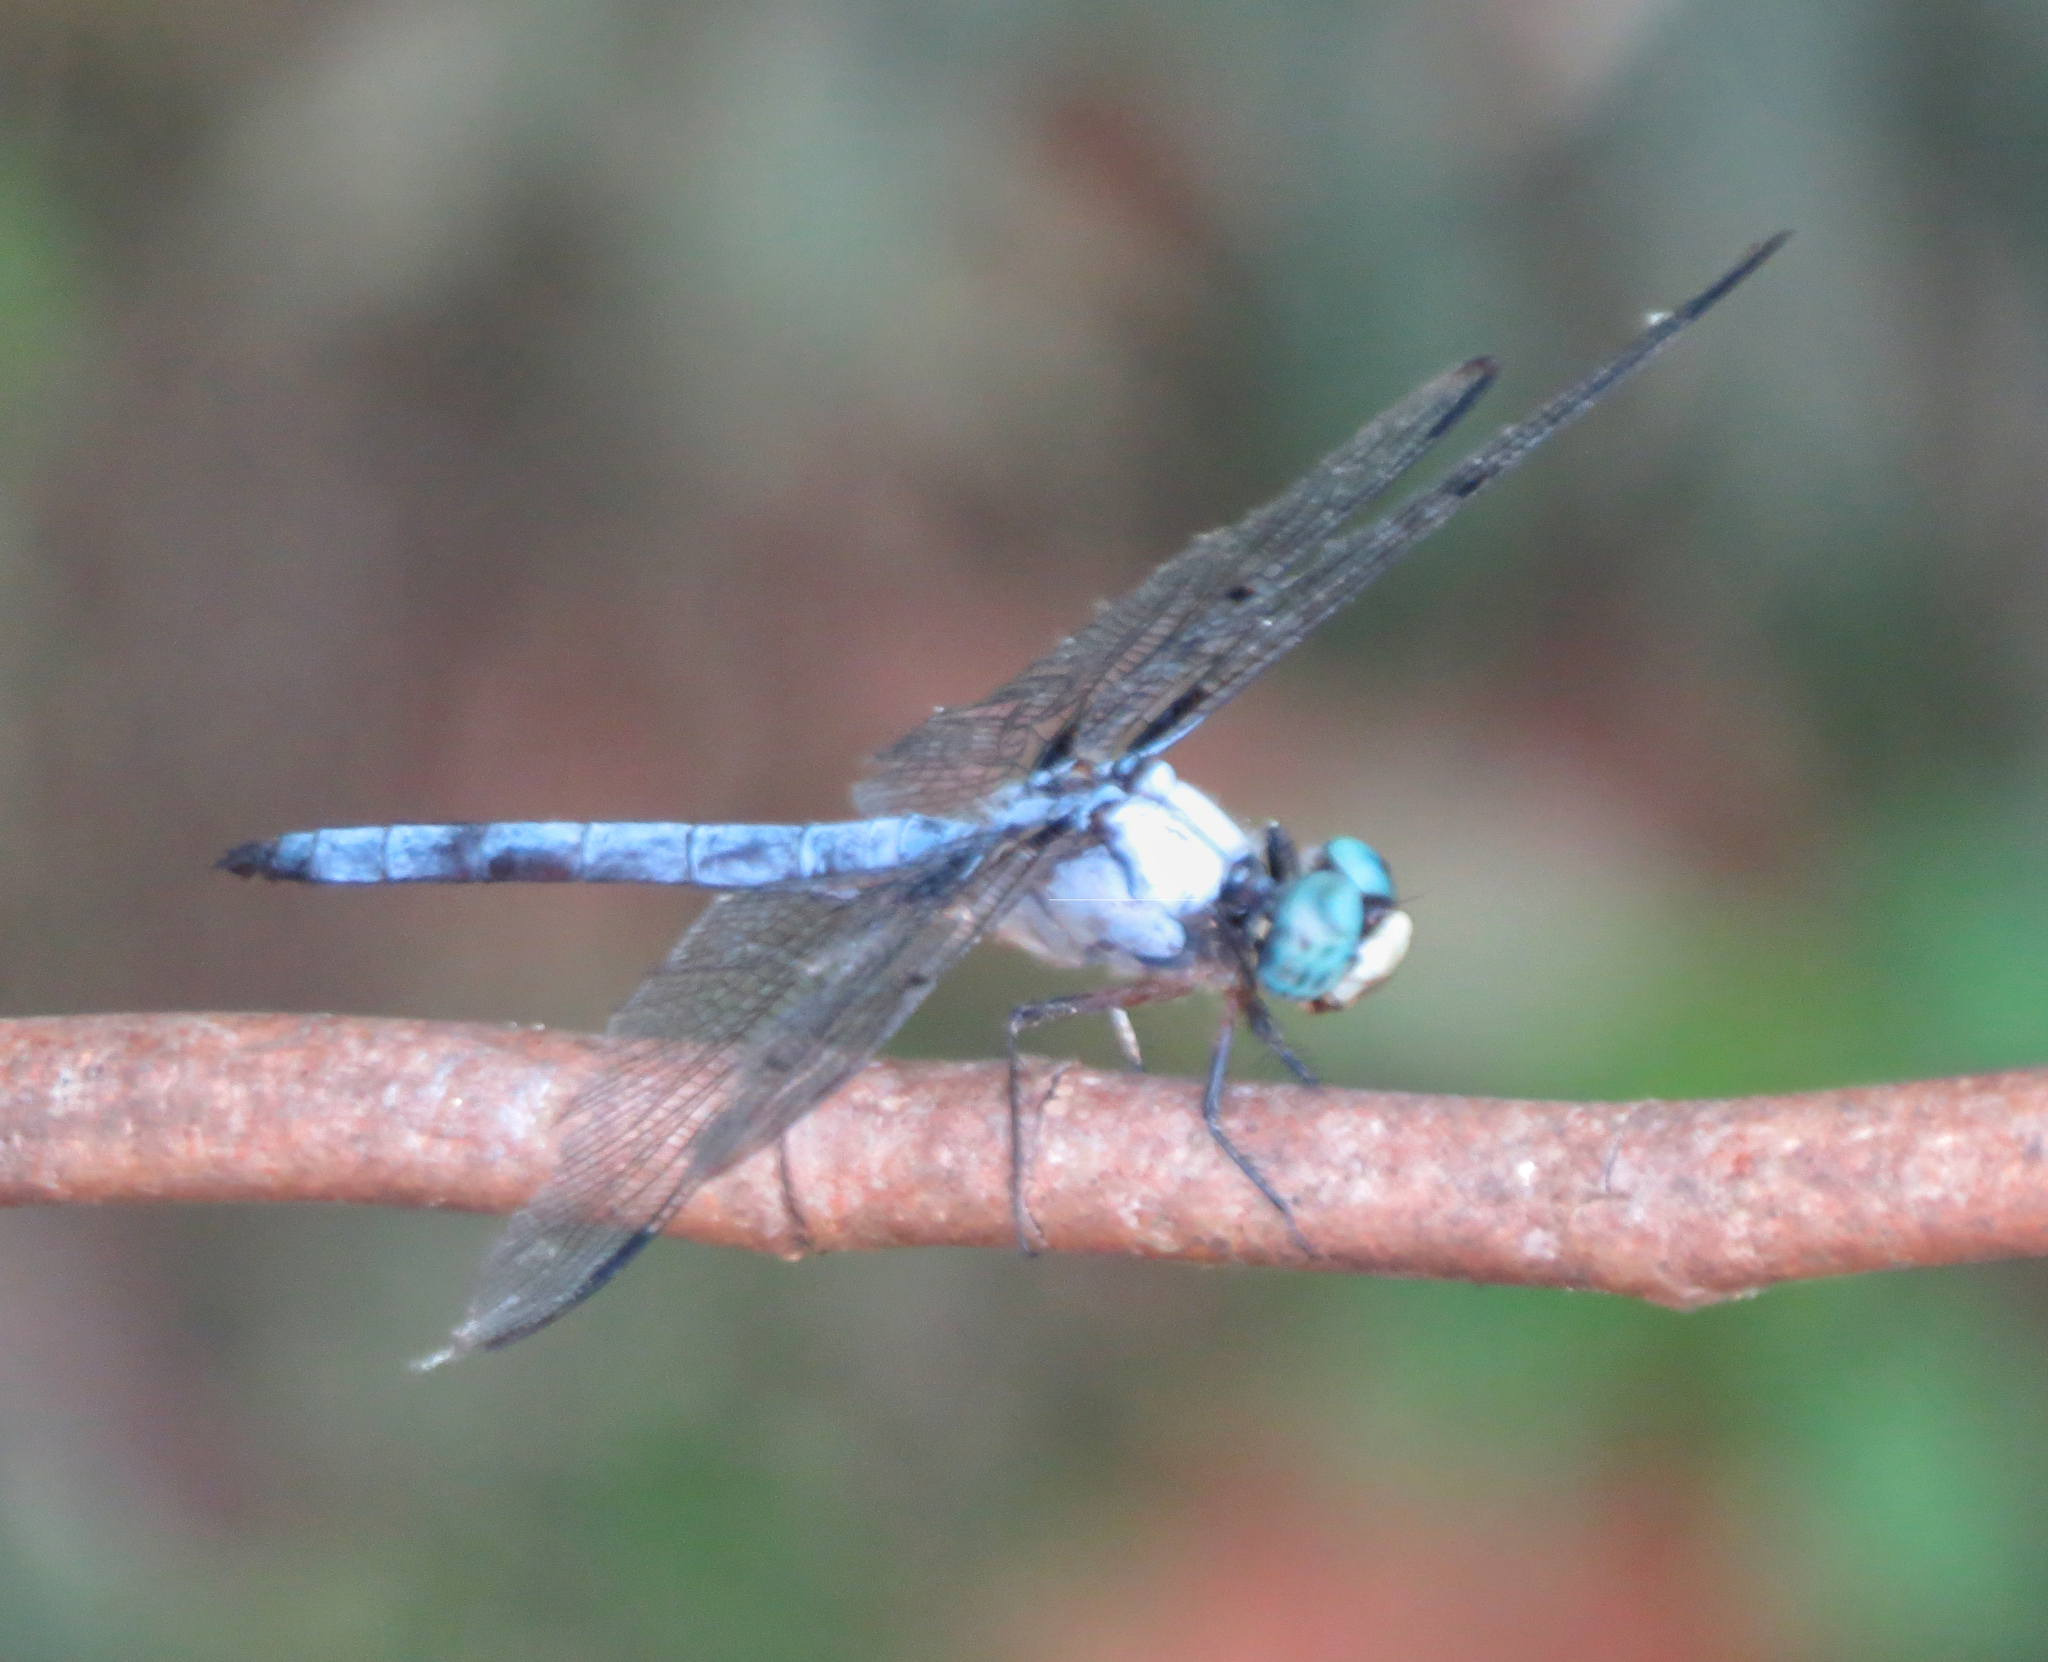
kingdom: Animalia
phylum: Arthropoda
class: Insecta
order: Odonata
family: Libellulidae
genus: Libellula
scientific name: Libellula vibrans
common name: Great blue skimmer
